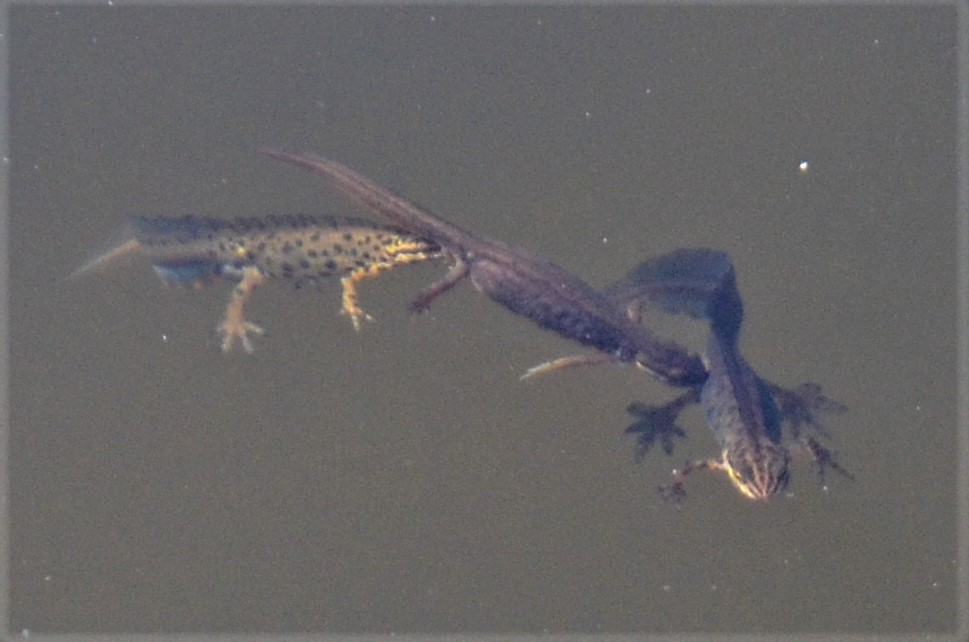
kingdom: Animalia
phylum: Chordata
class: Amphibia
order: Caudata
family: Salamandridae
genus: Lissotriton
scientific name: Lissotriton vulgaris
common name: Smooth newt
